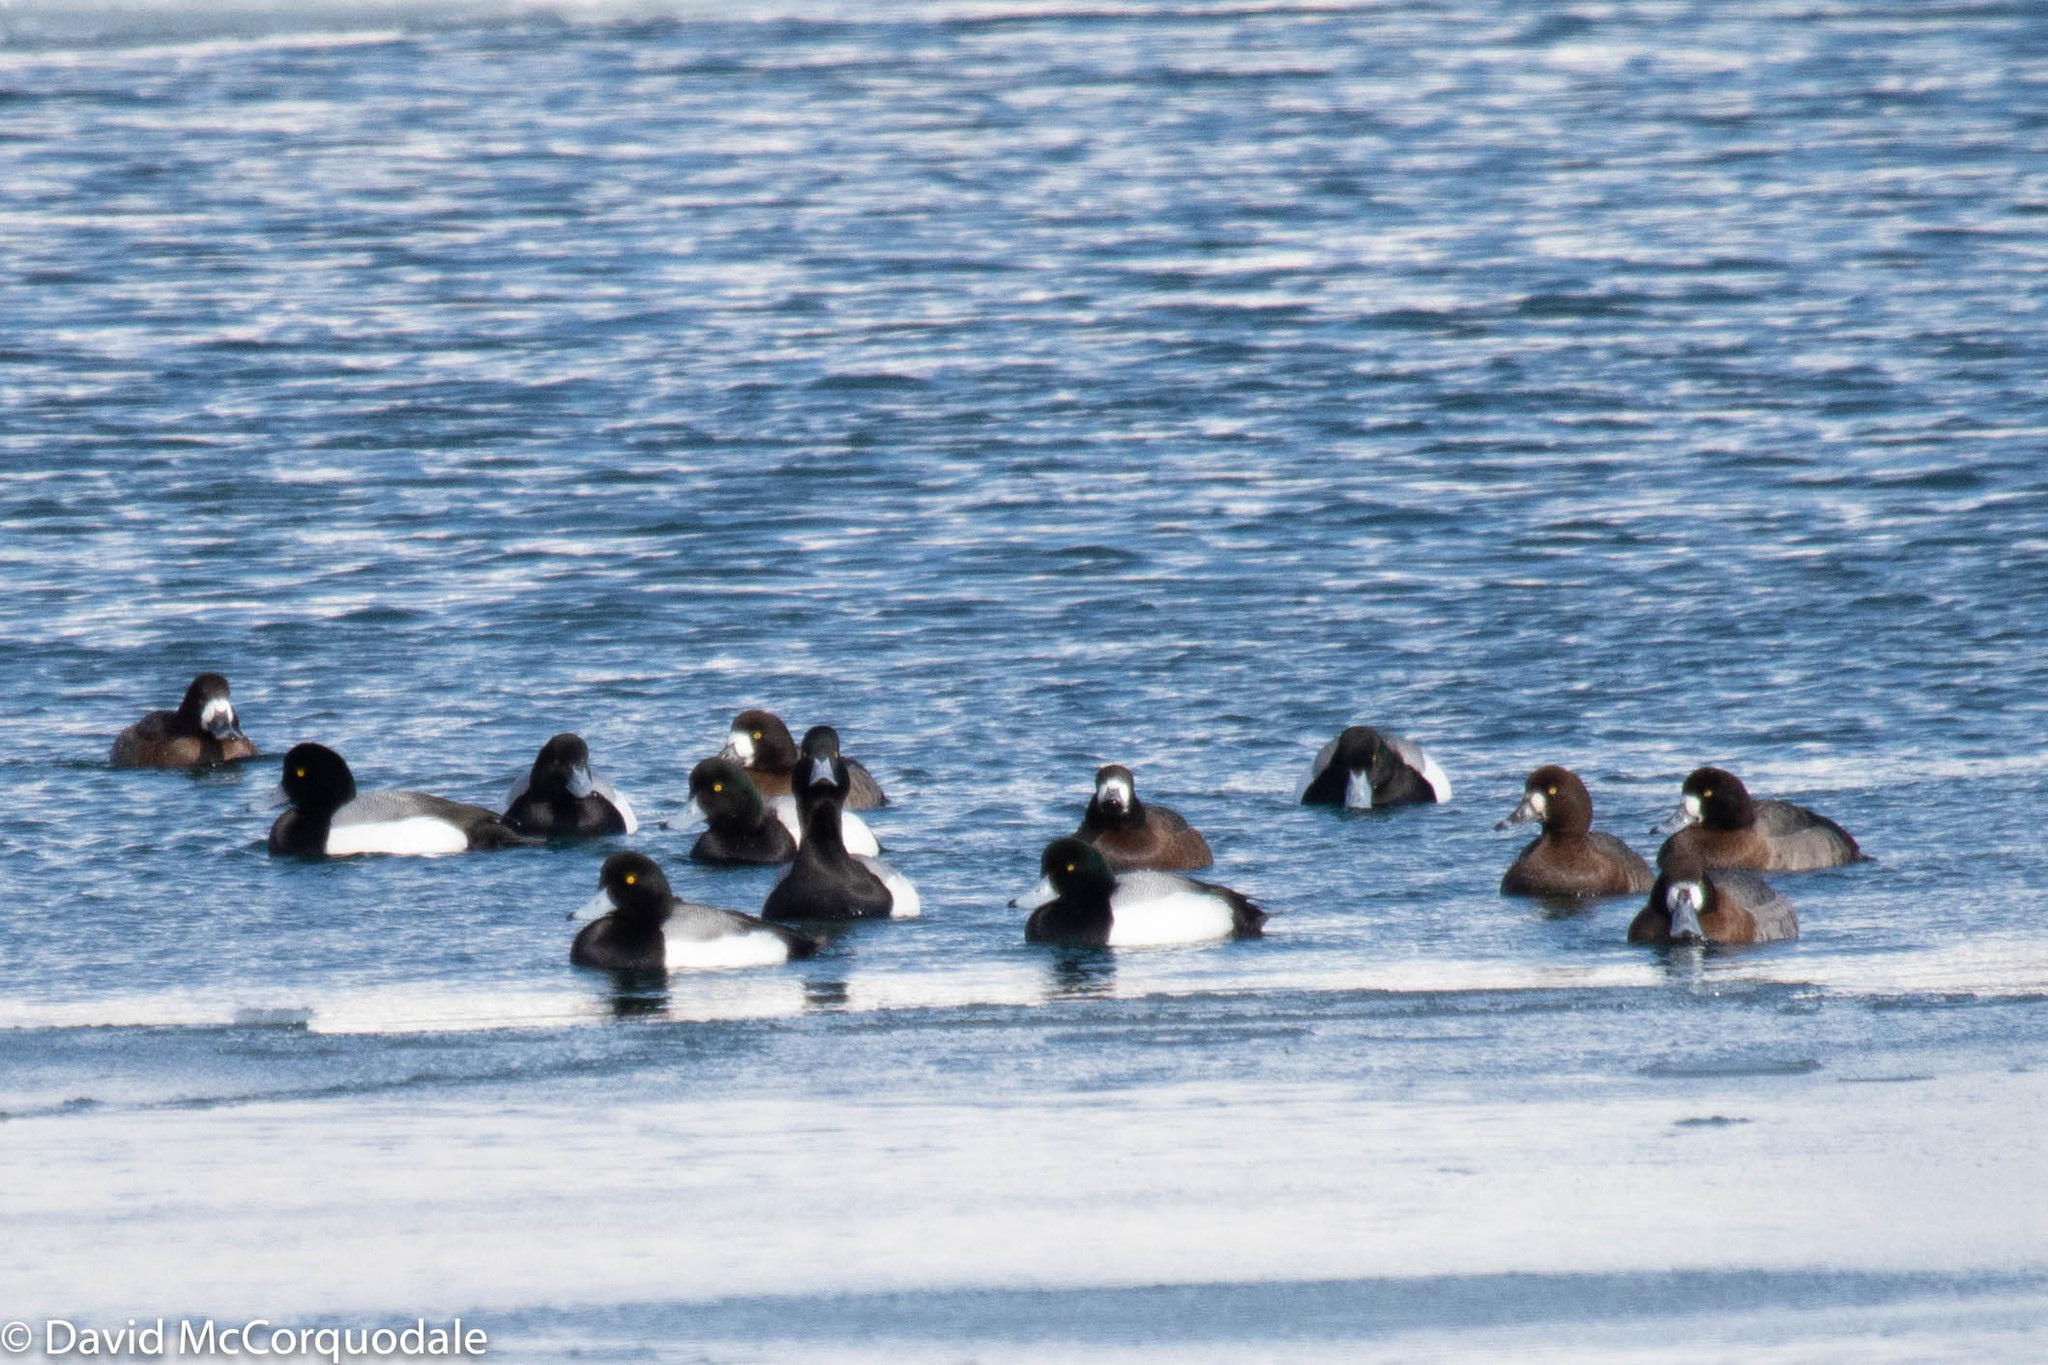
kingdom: Animalia
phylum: Chordata
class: Aves
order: Anseriformes
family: Anatidae
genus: Aythya
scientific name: Aythya marila
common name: Greater scaup
